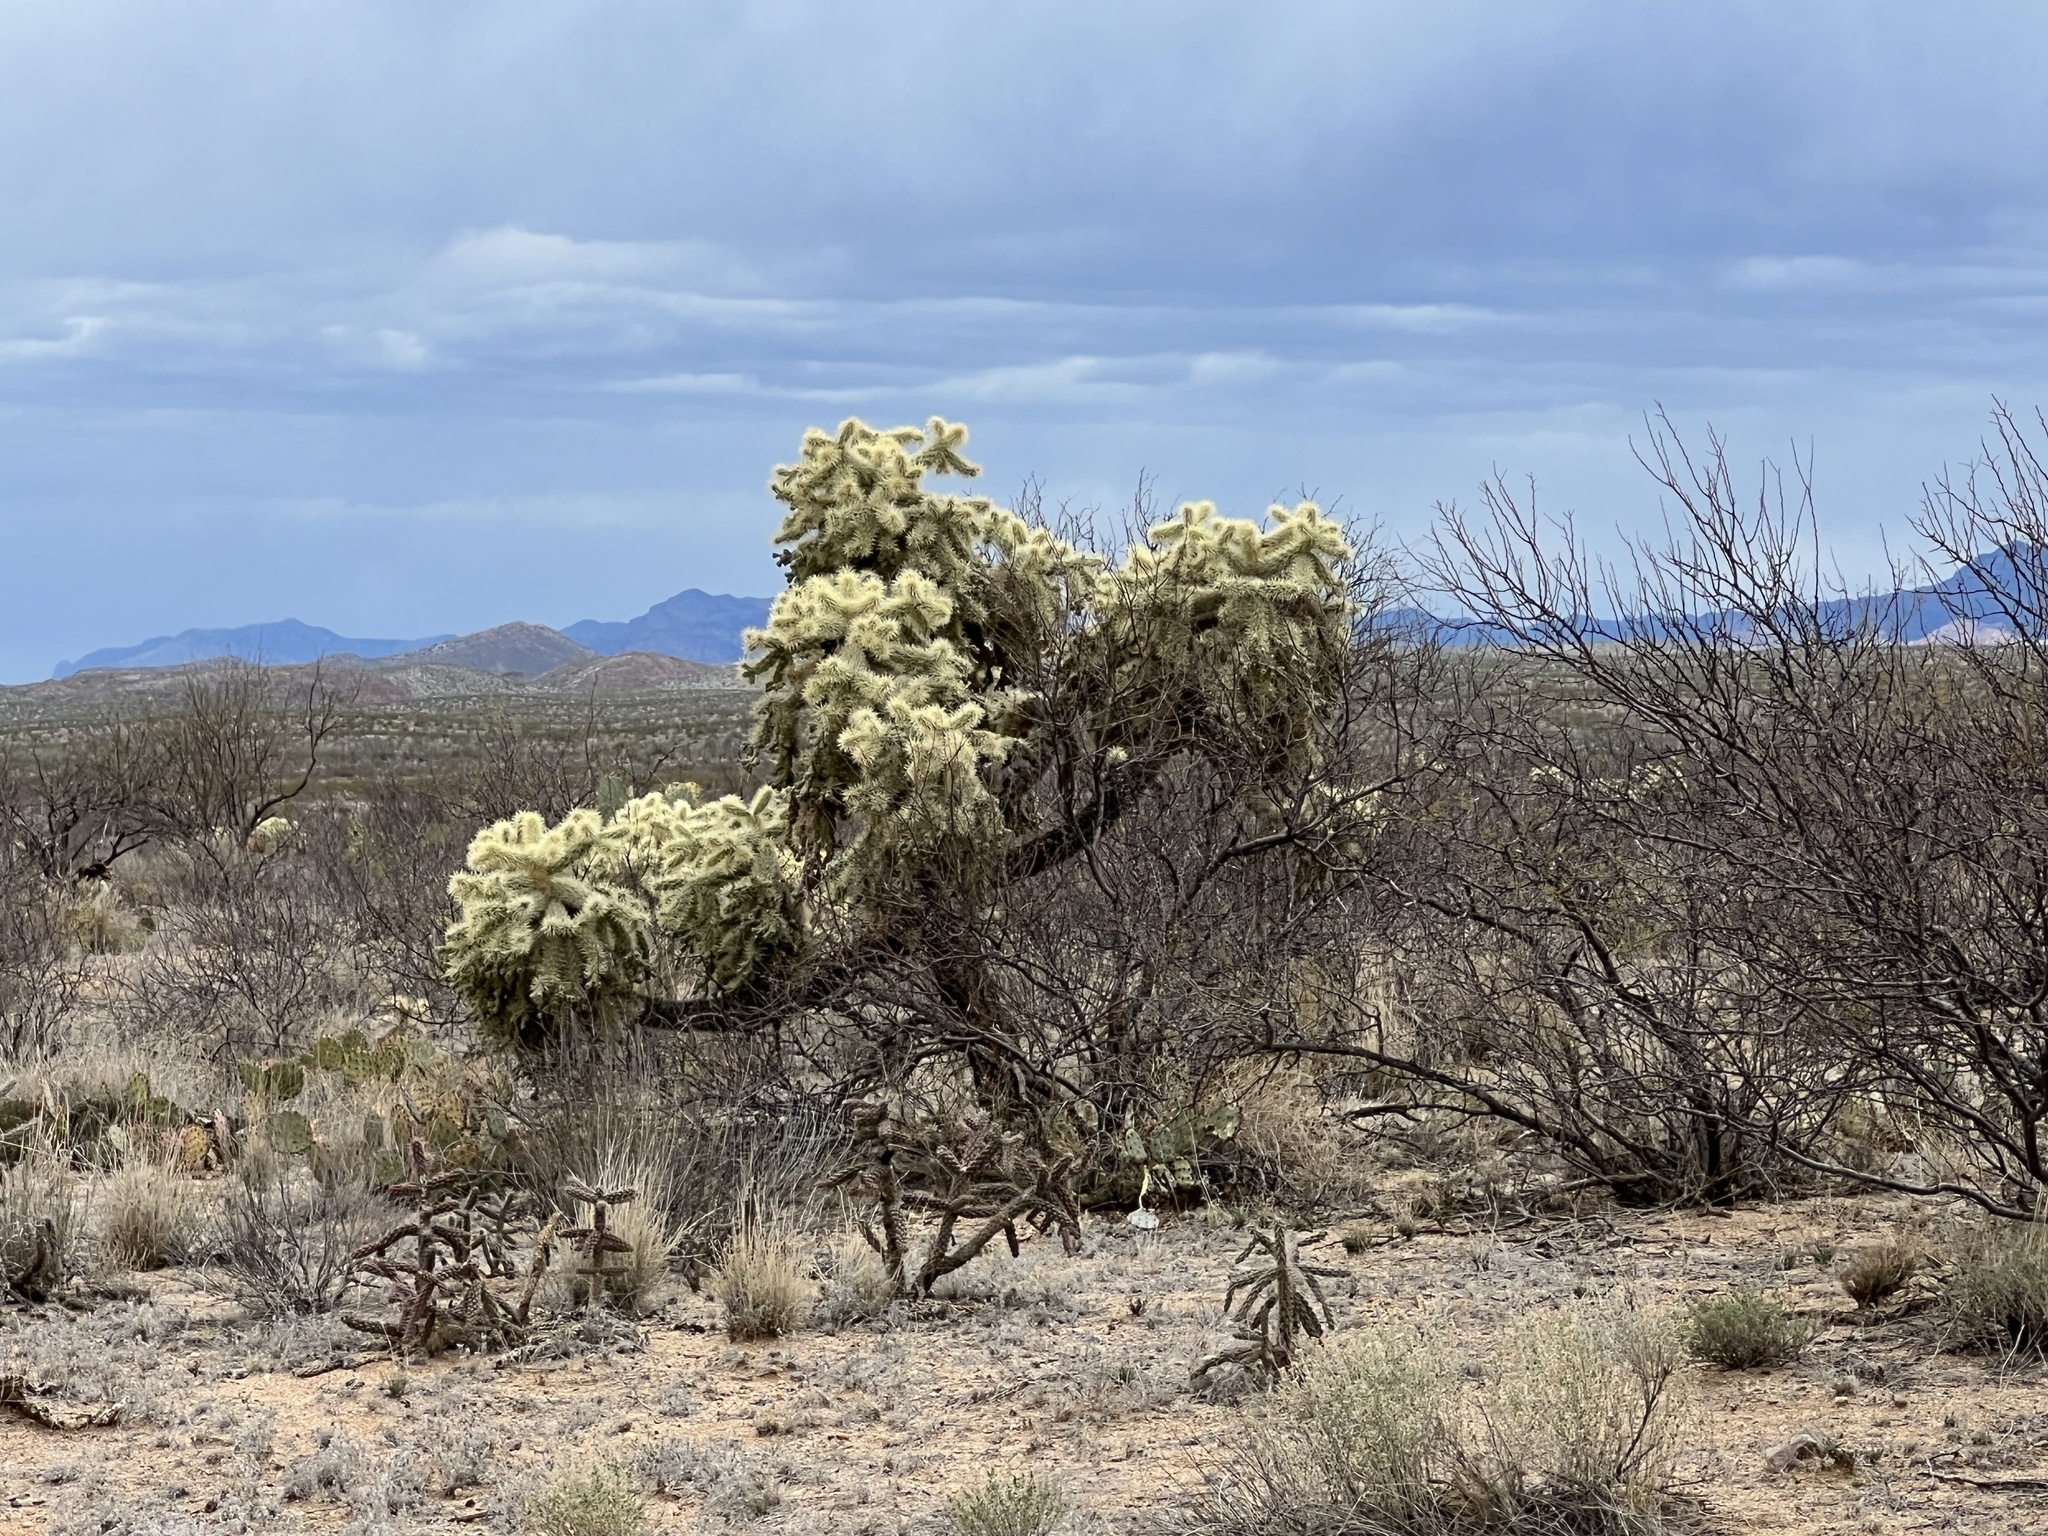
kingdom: Plantae
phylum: Tracheophyta
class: Magnoliopsida
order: Caryophyllales
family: Cactaceae
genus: Cylindropuntia
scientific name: Cylindropuntia fulgida
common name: Jumping cholla
